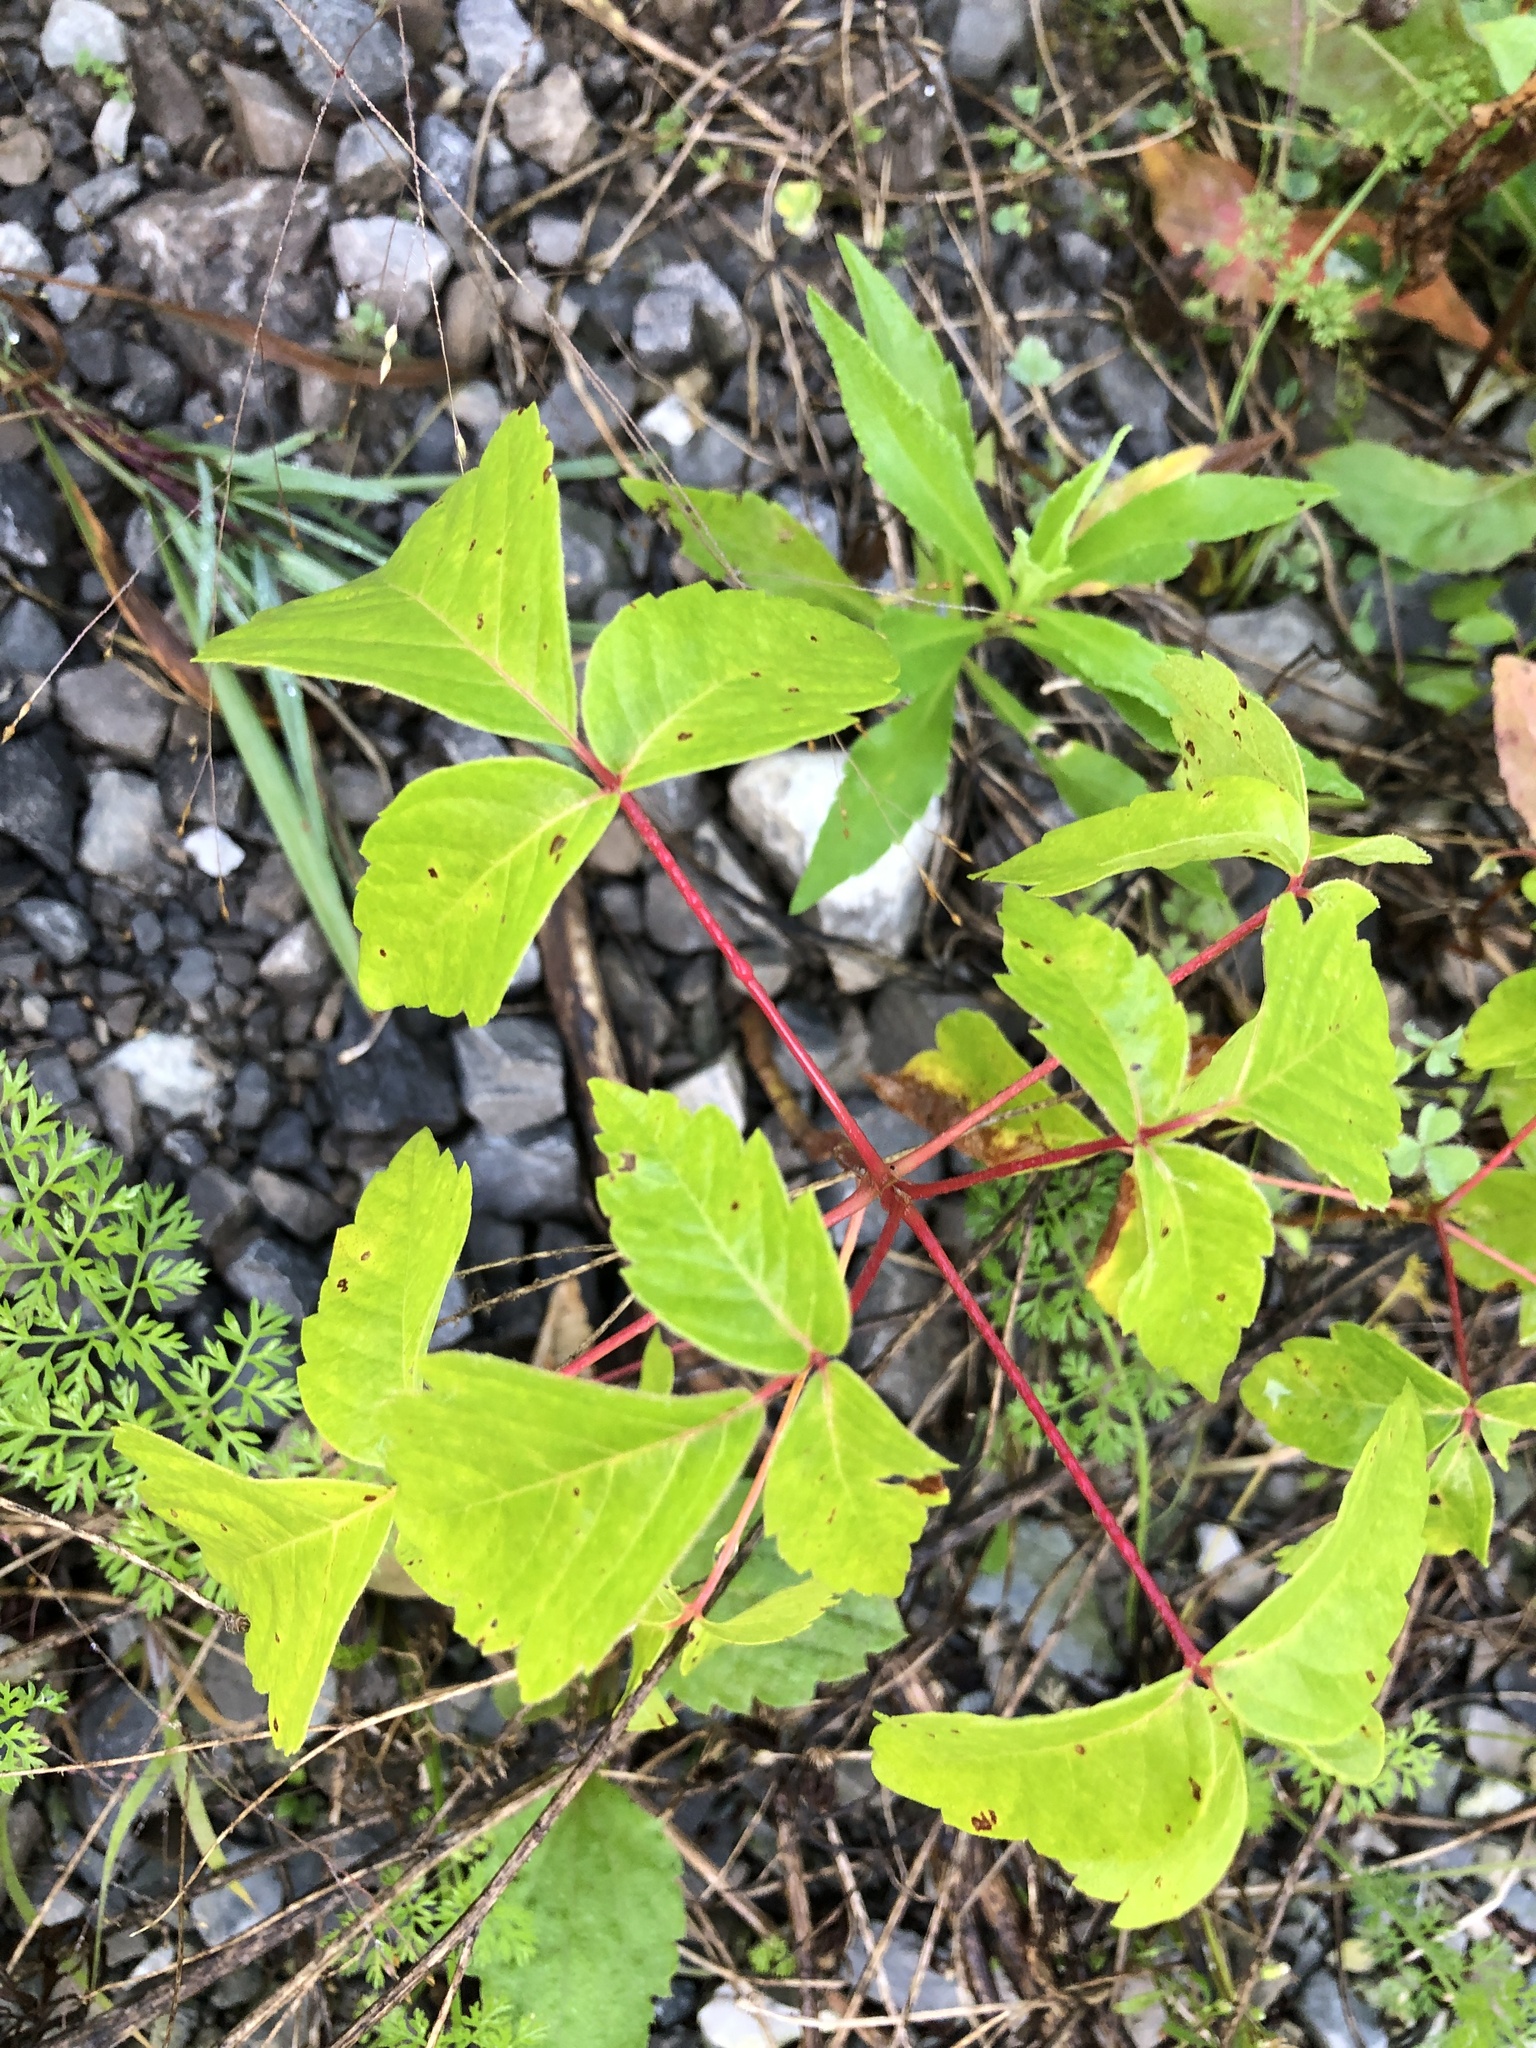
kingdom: Plantae
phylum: Tracheophyta
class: Magnoliopsida
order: Sapindales
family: Sapindaceae
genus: Acer
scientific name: Acer negundo
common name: Ashleaf maple
